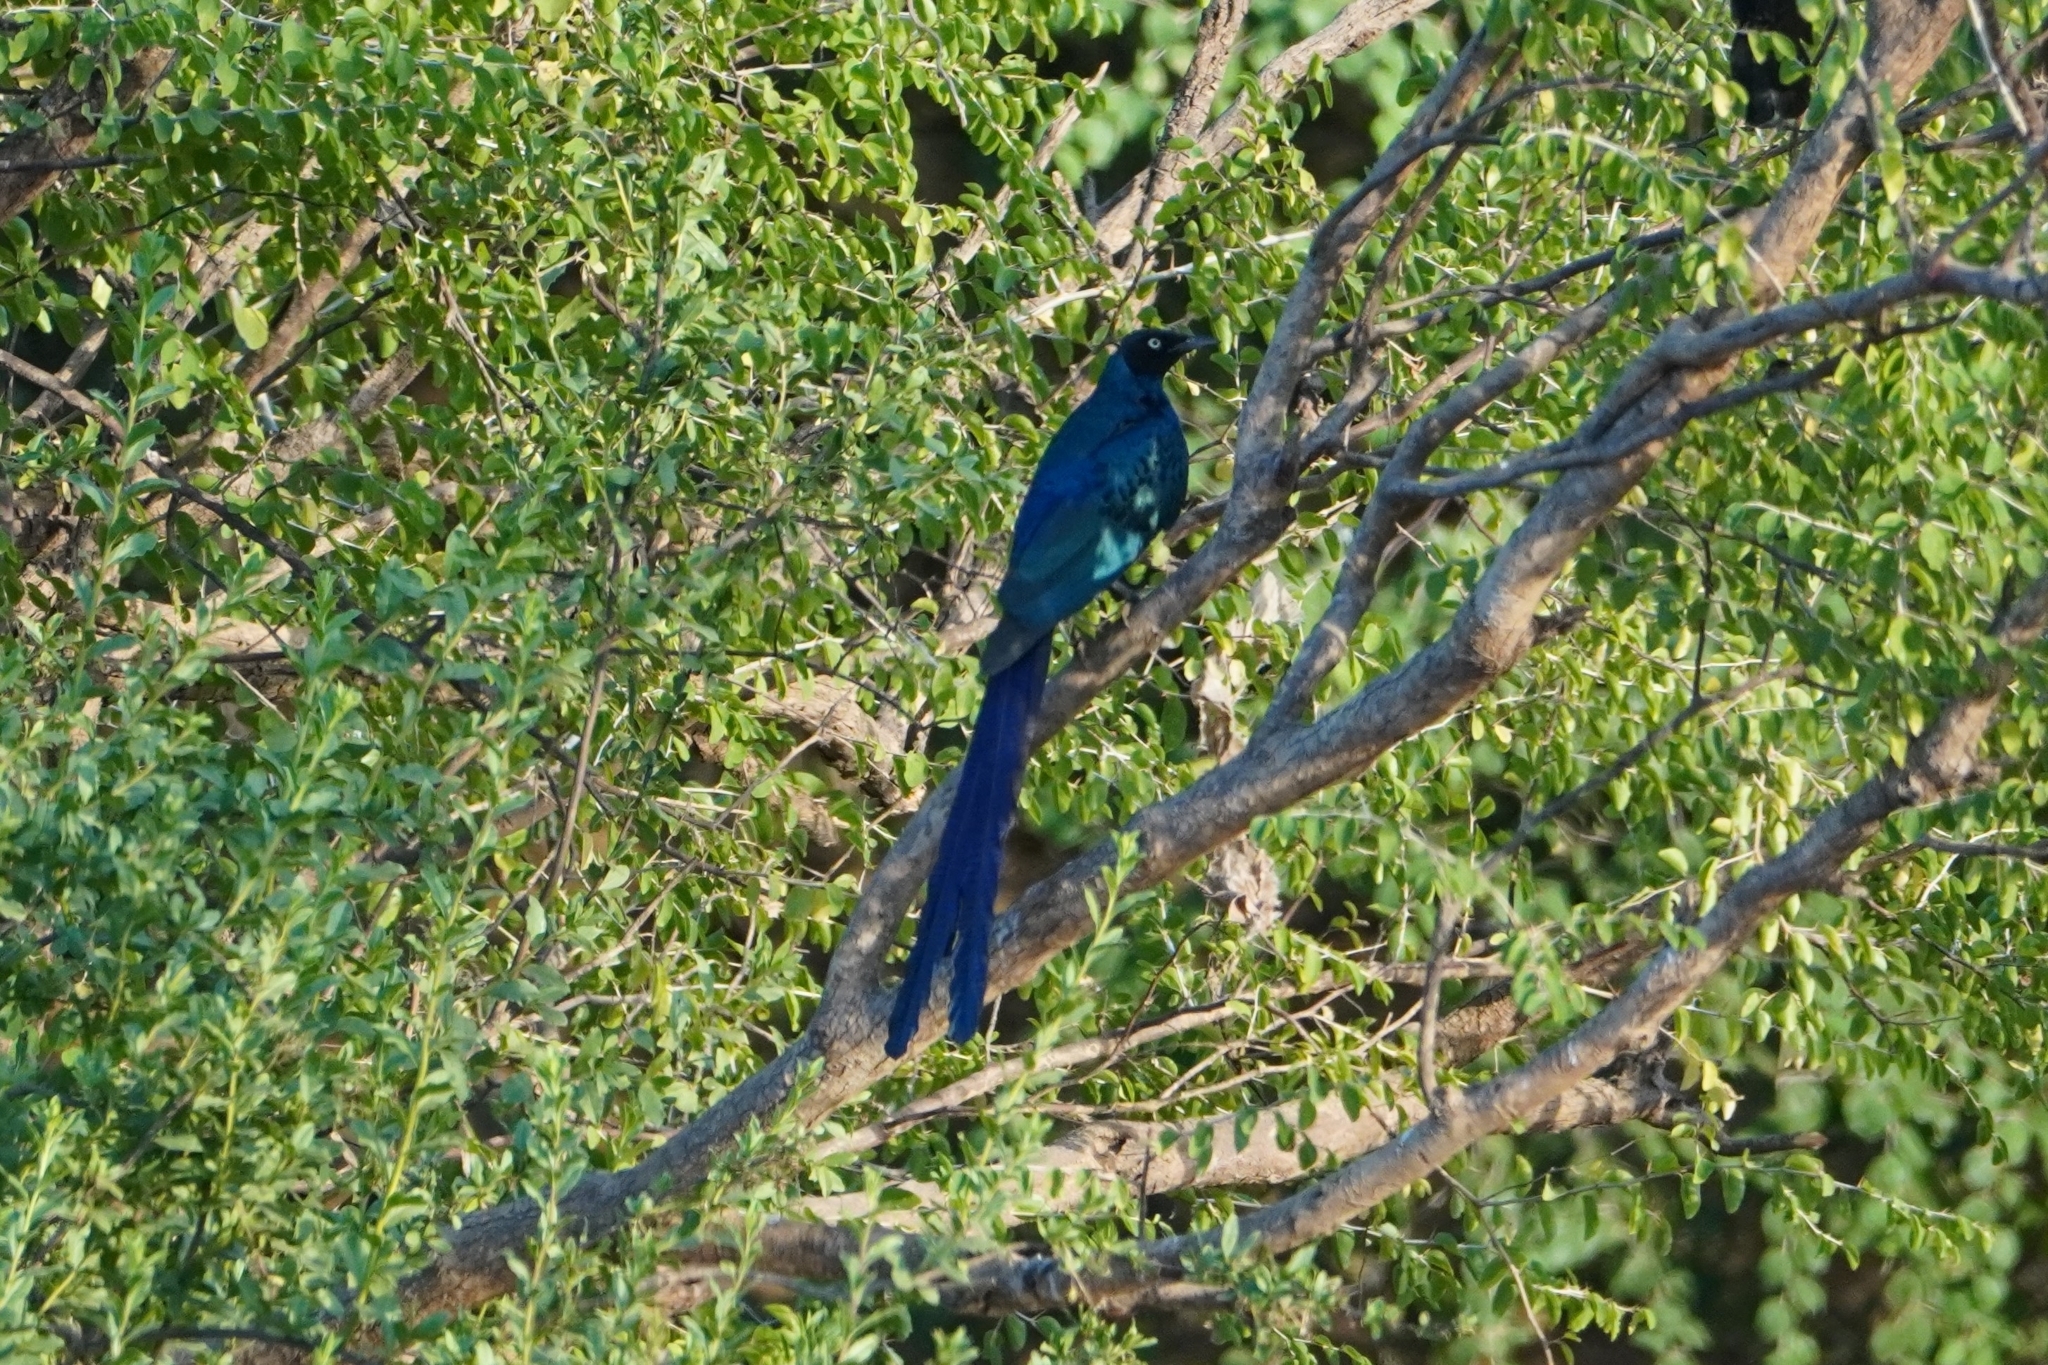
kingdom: Animalia
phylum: Chordata
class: Aves
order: Passeriformes
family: Sturnidae
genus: Lamprotornis
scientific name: Lamprotornis caudatus
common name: Long-tailed glossy starling
